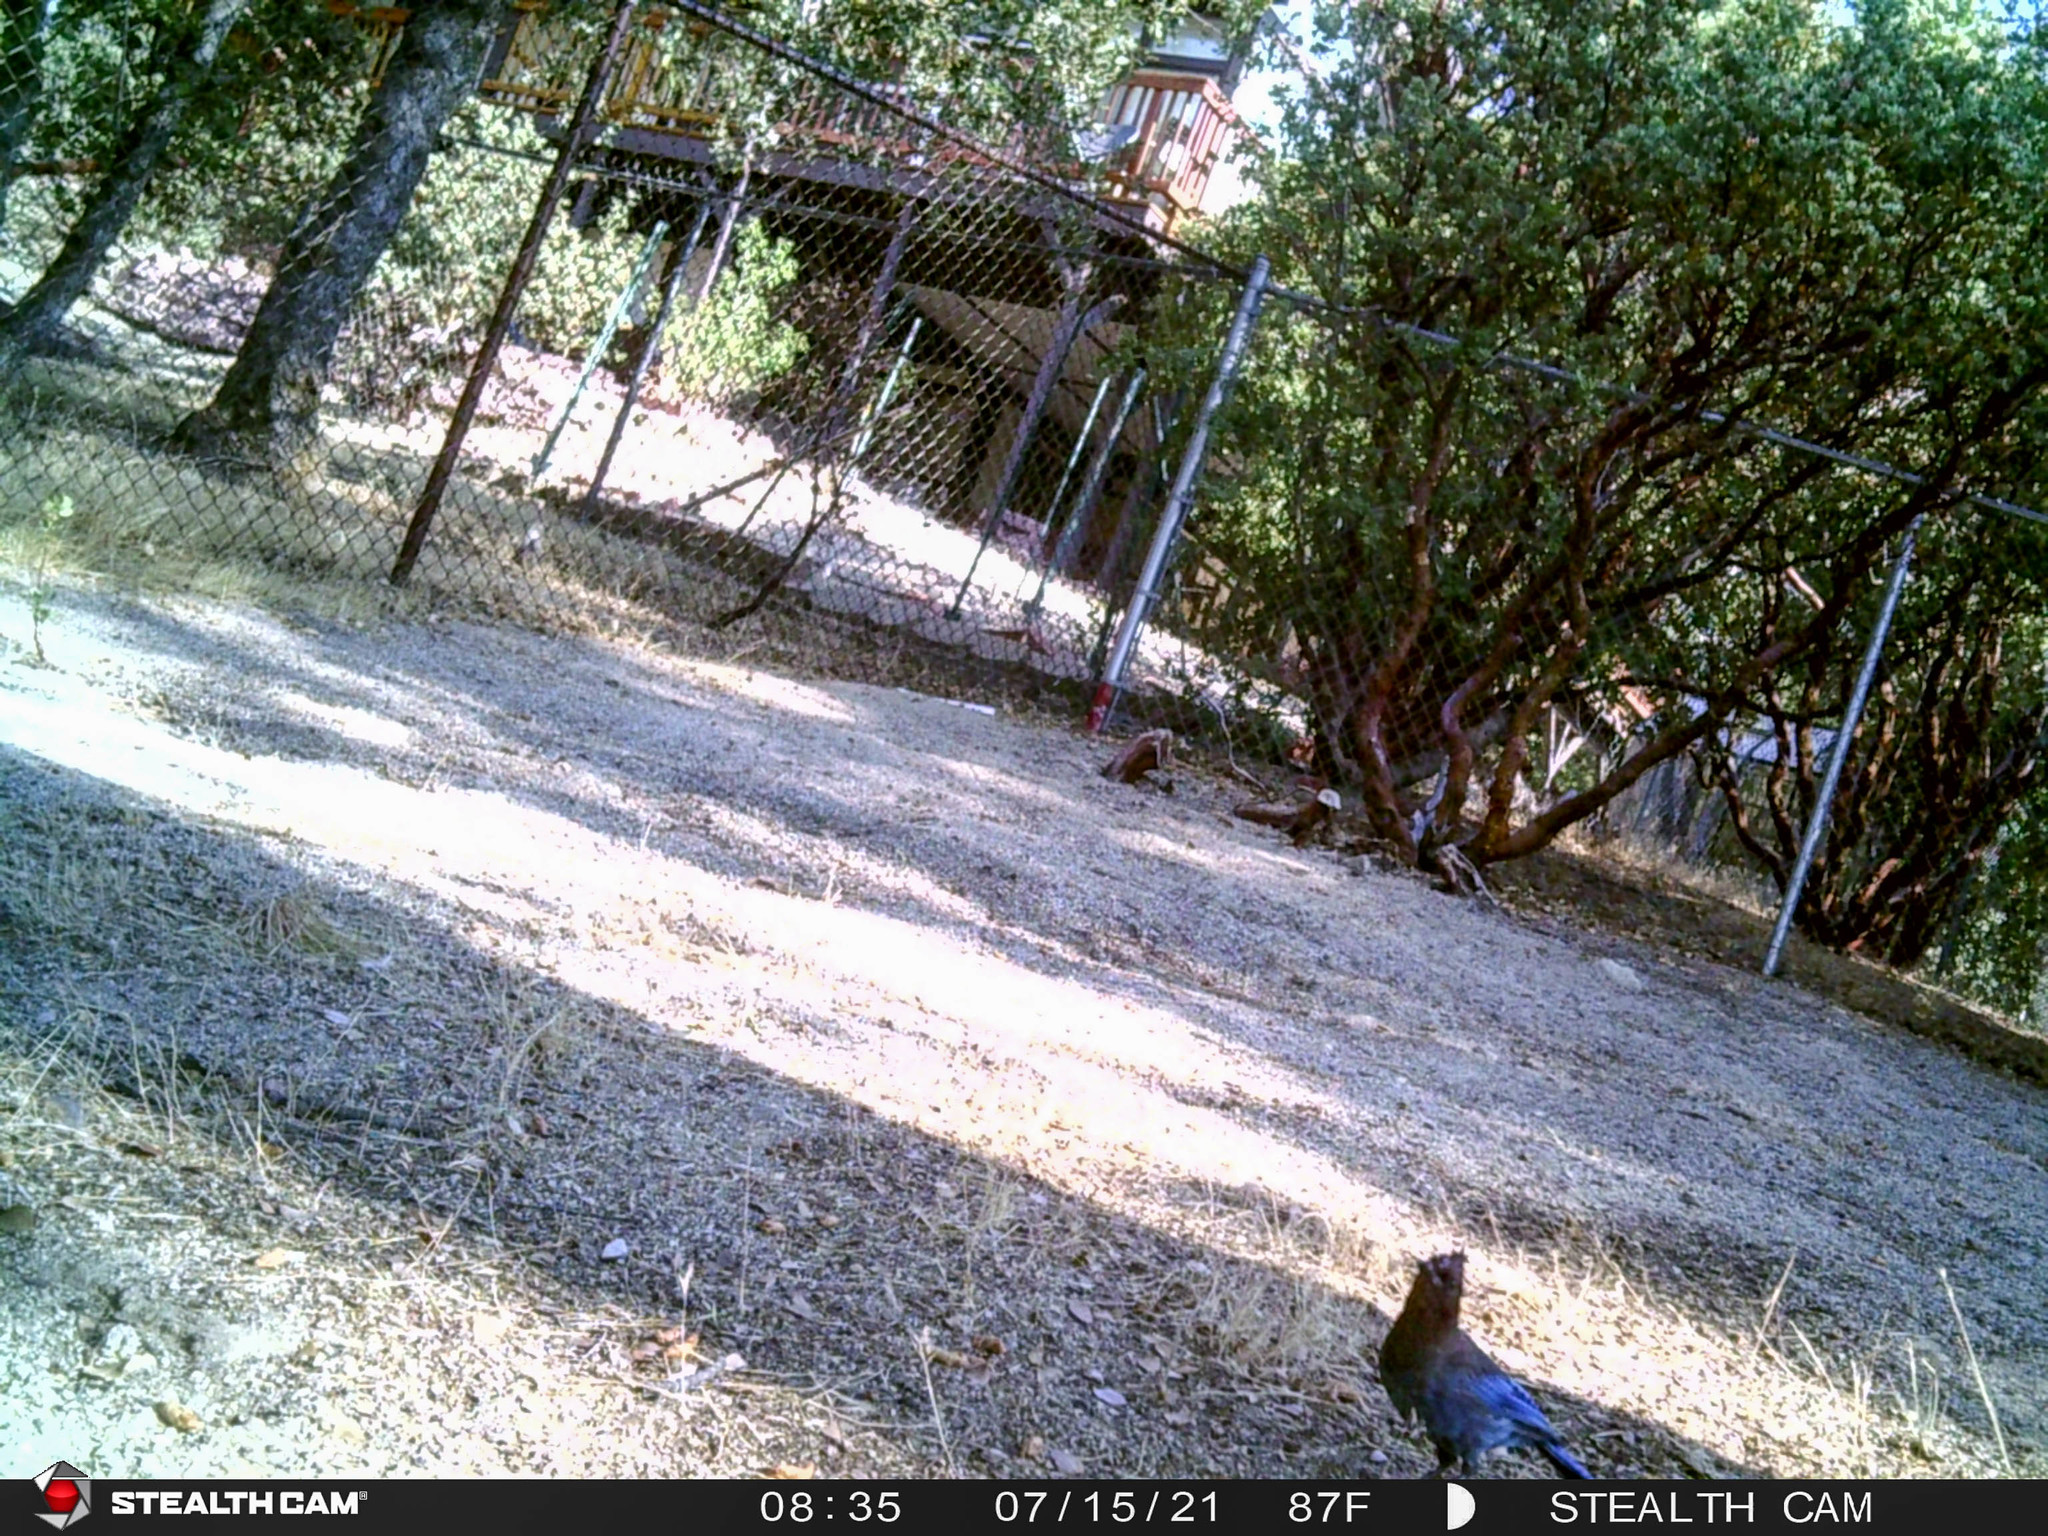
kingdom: Animalia
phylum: Chordata
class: Aves
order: Passeriformes
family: Corvidae
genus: Cyanocitta
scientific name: Cyanocitta stelleri
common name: Steller's jay
